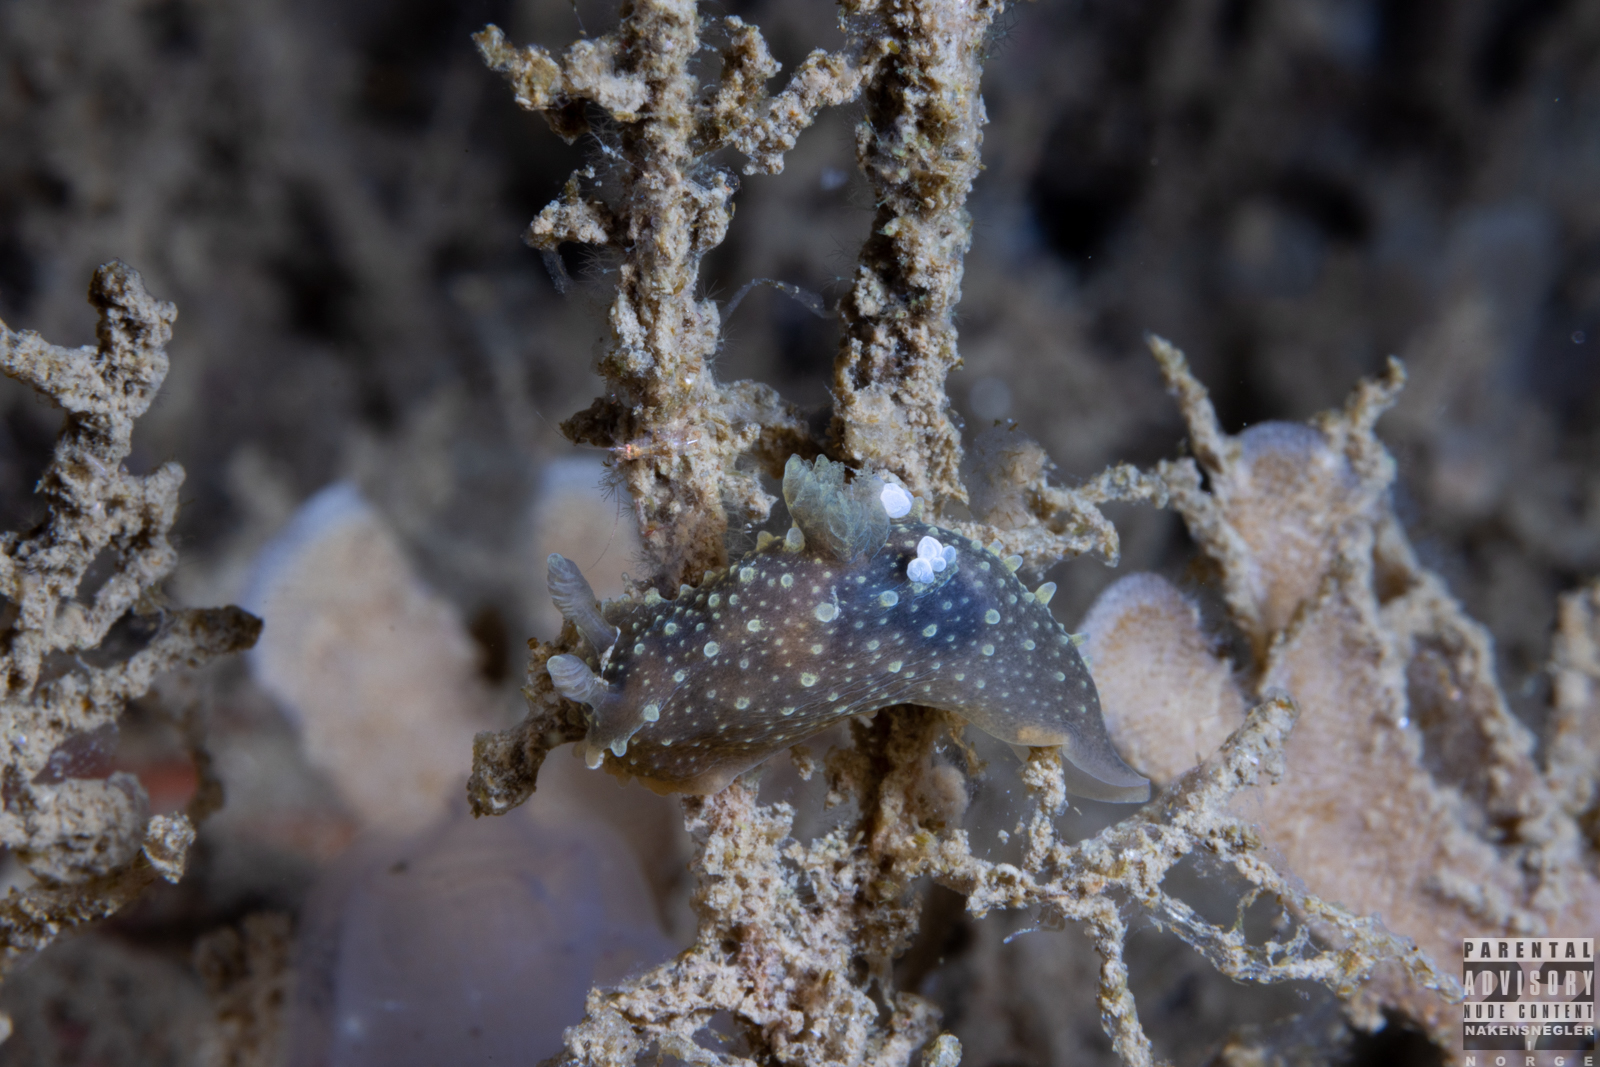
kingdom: Animalia
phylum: Mollusca
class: Gastropoda
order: Nudibranchia
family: Polyceridae
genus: Palio
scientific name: Palio dubia
